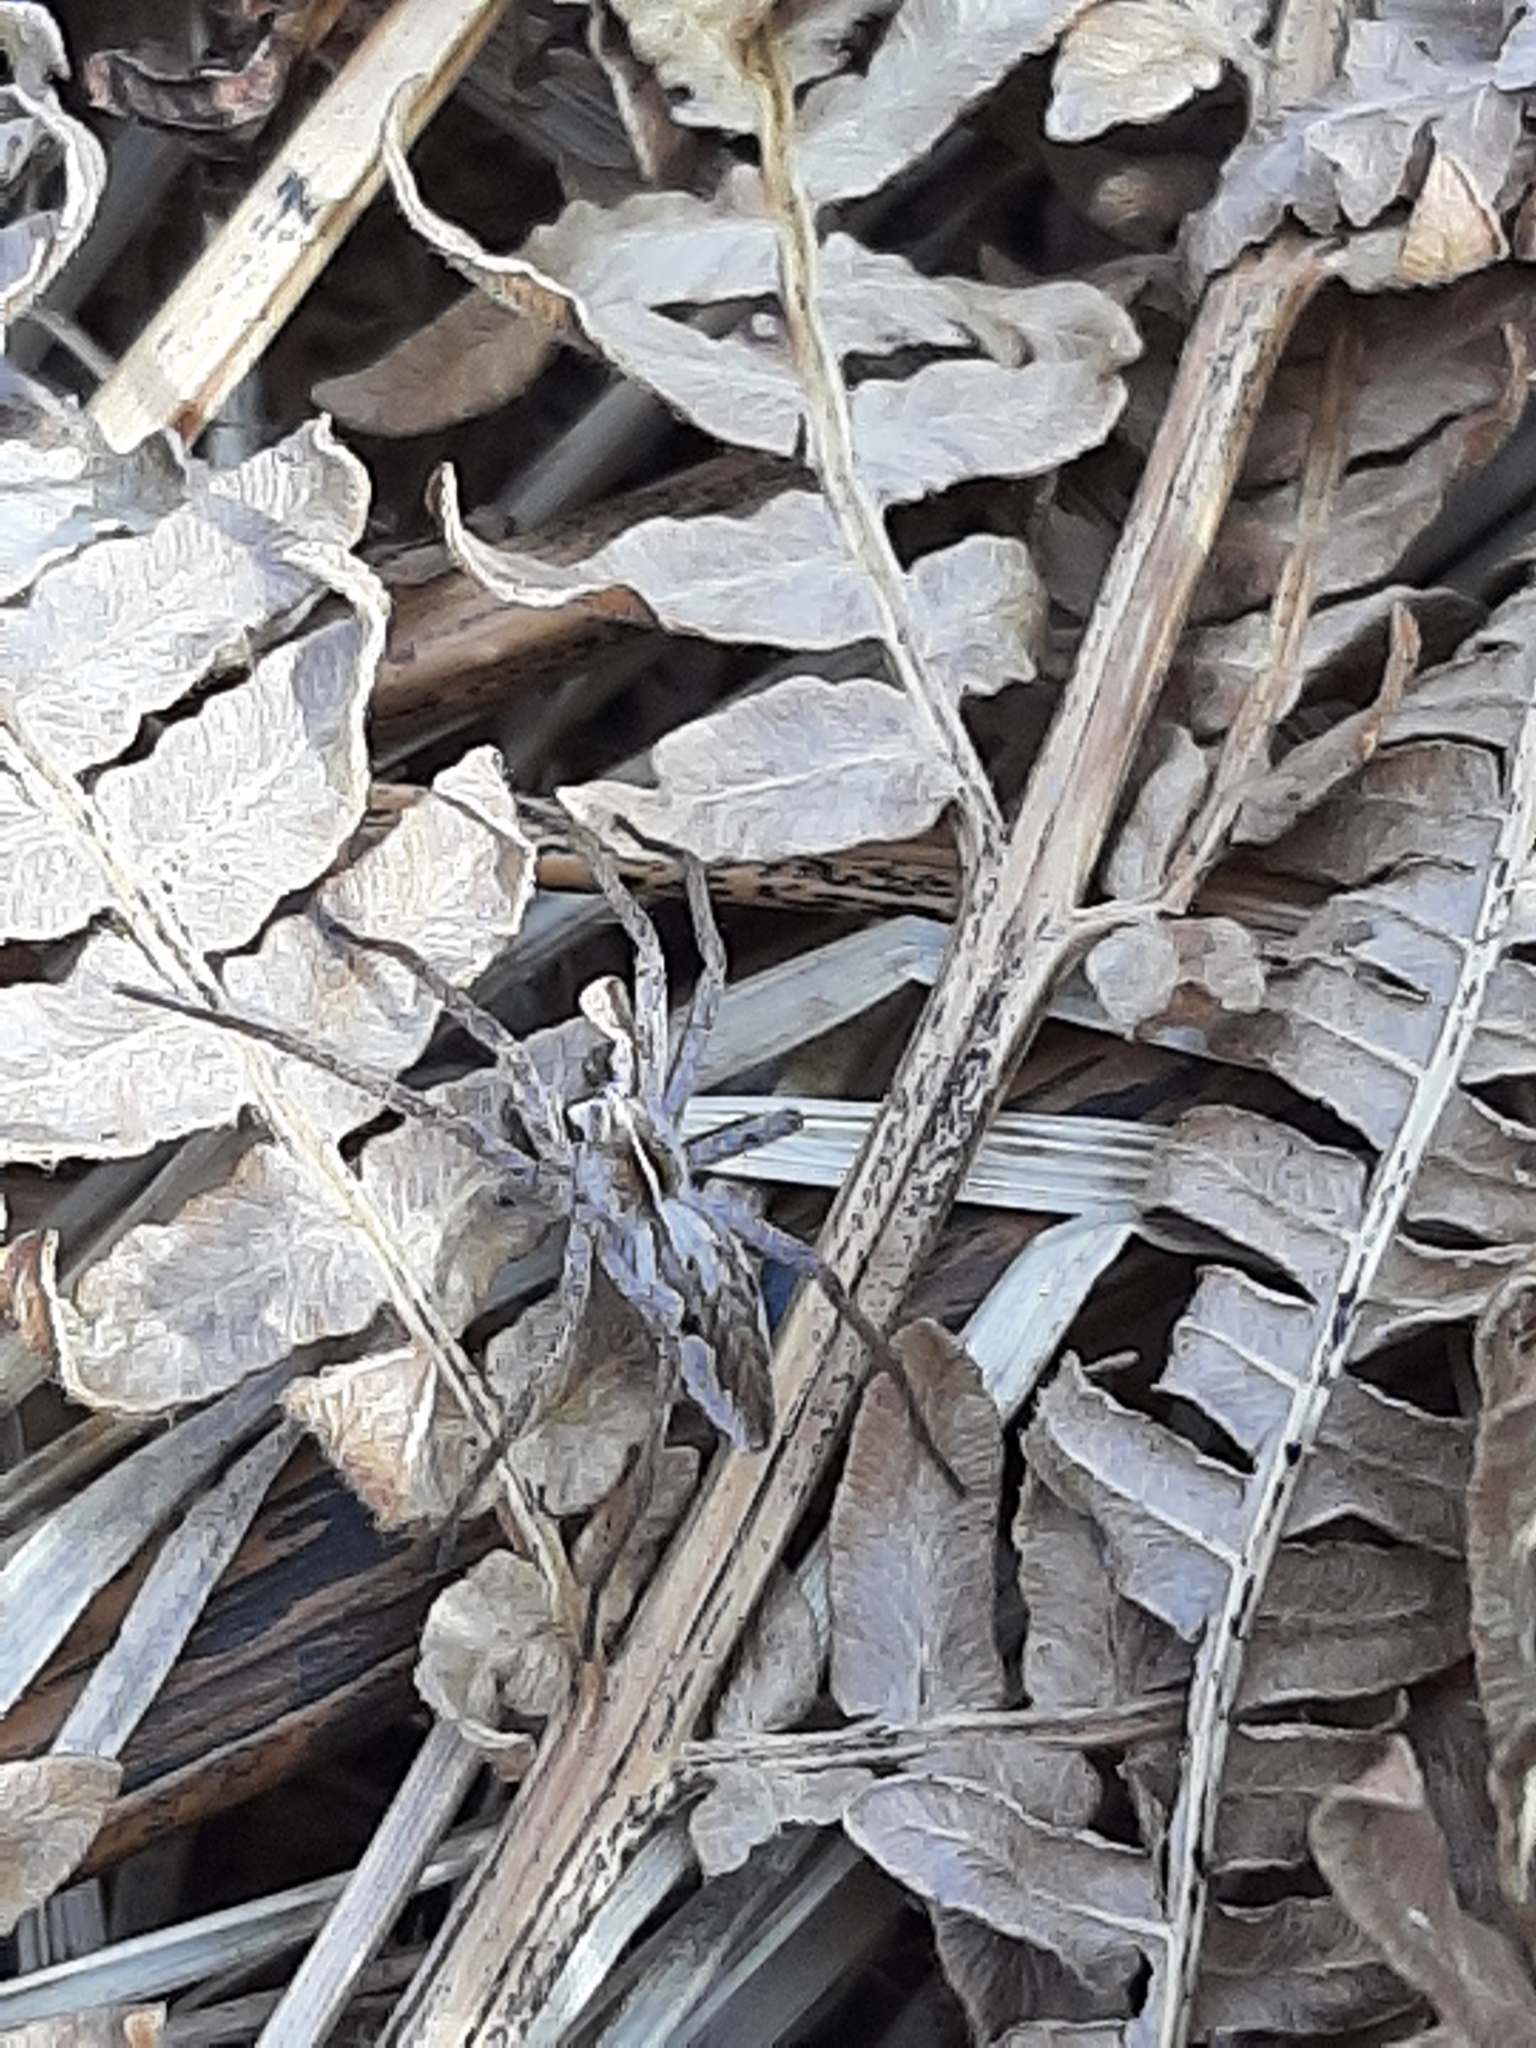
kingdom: Animalia
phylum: Arthropoda
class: Arachnida
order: Araneae
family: Pisauridae
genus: Pisaura
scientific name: Pisaura mirabilis
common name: Tent spider
